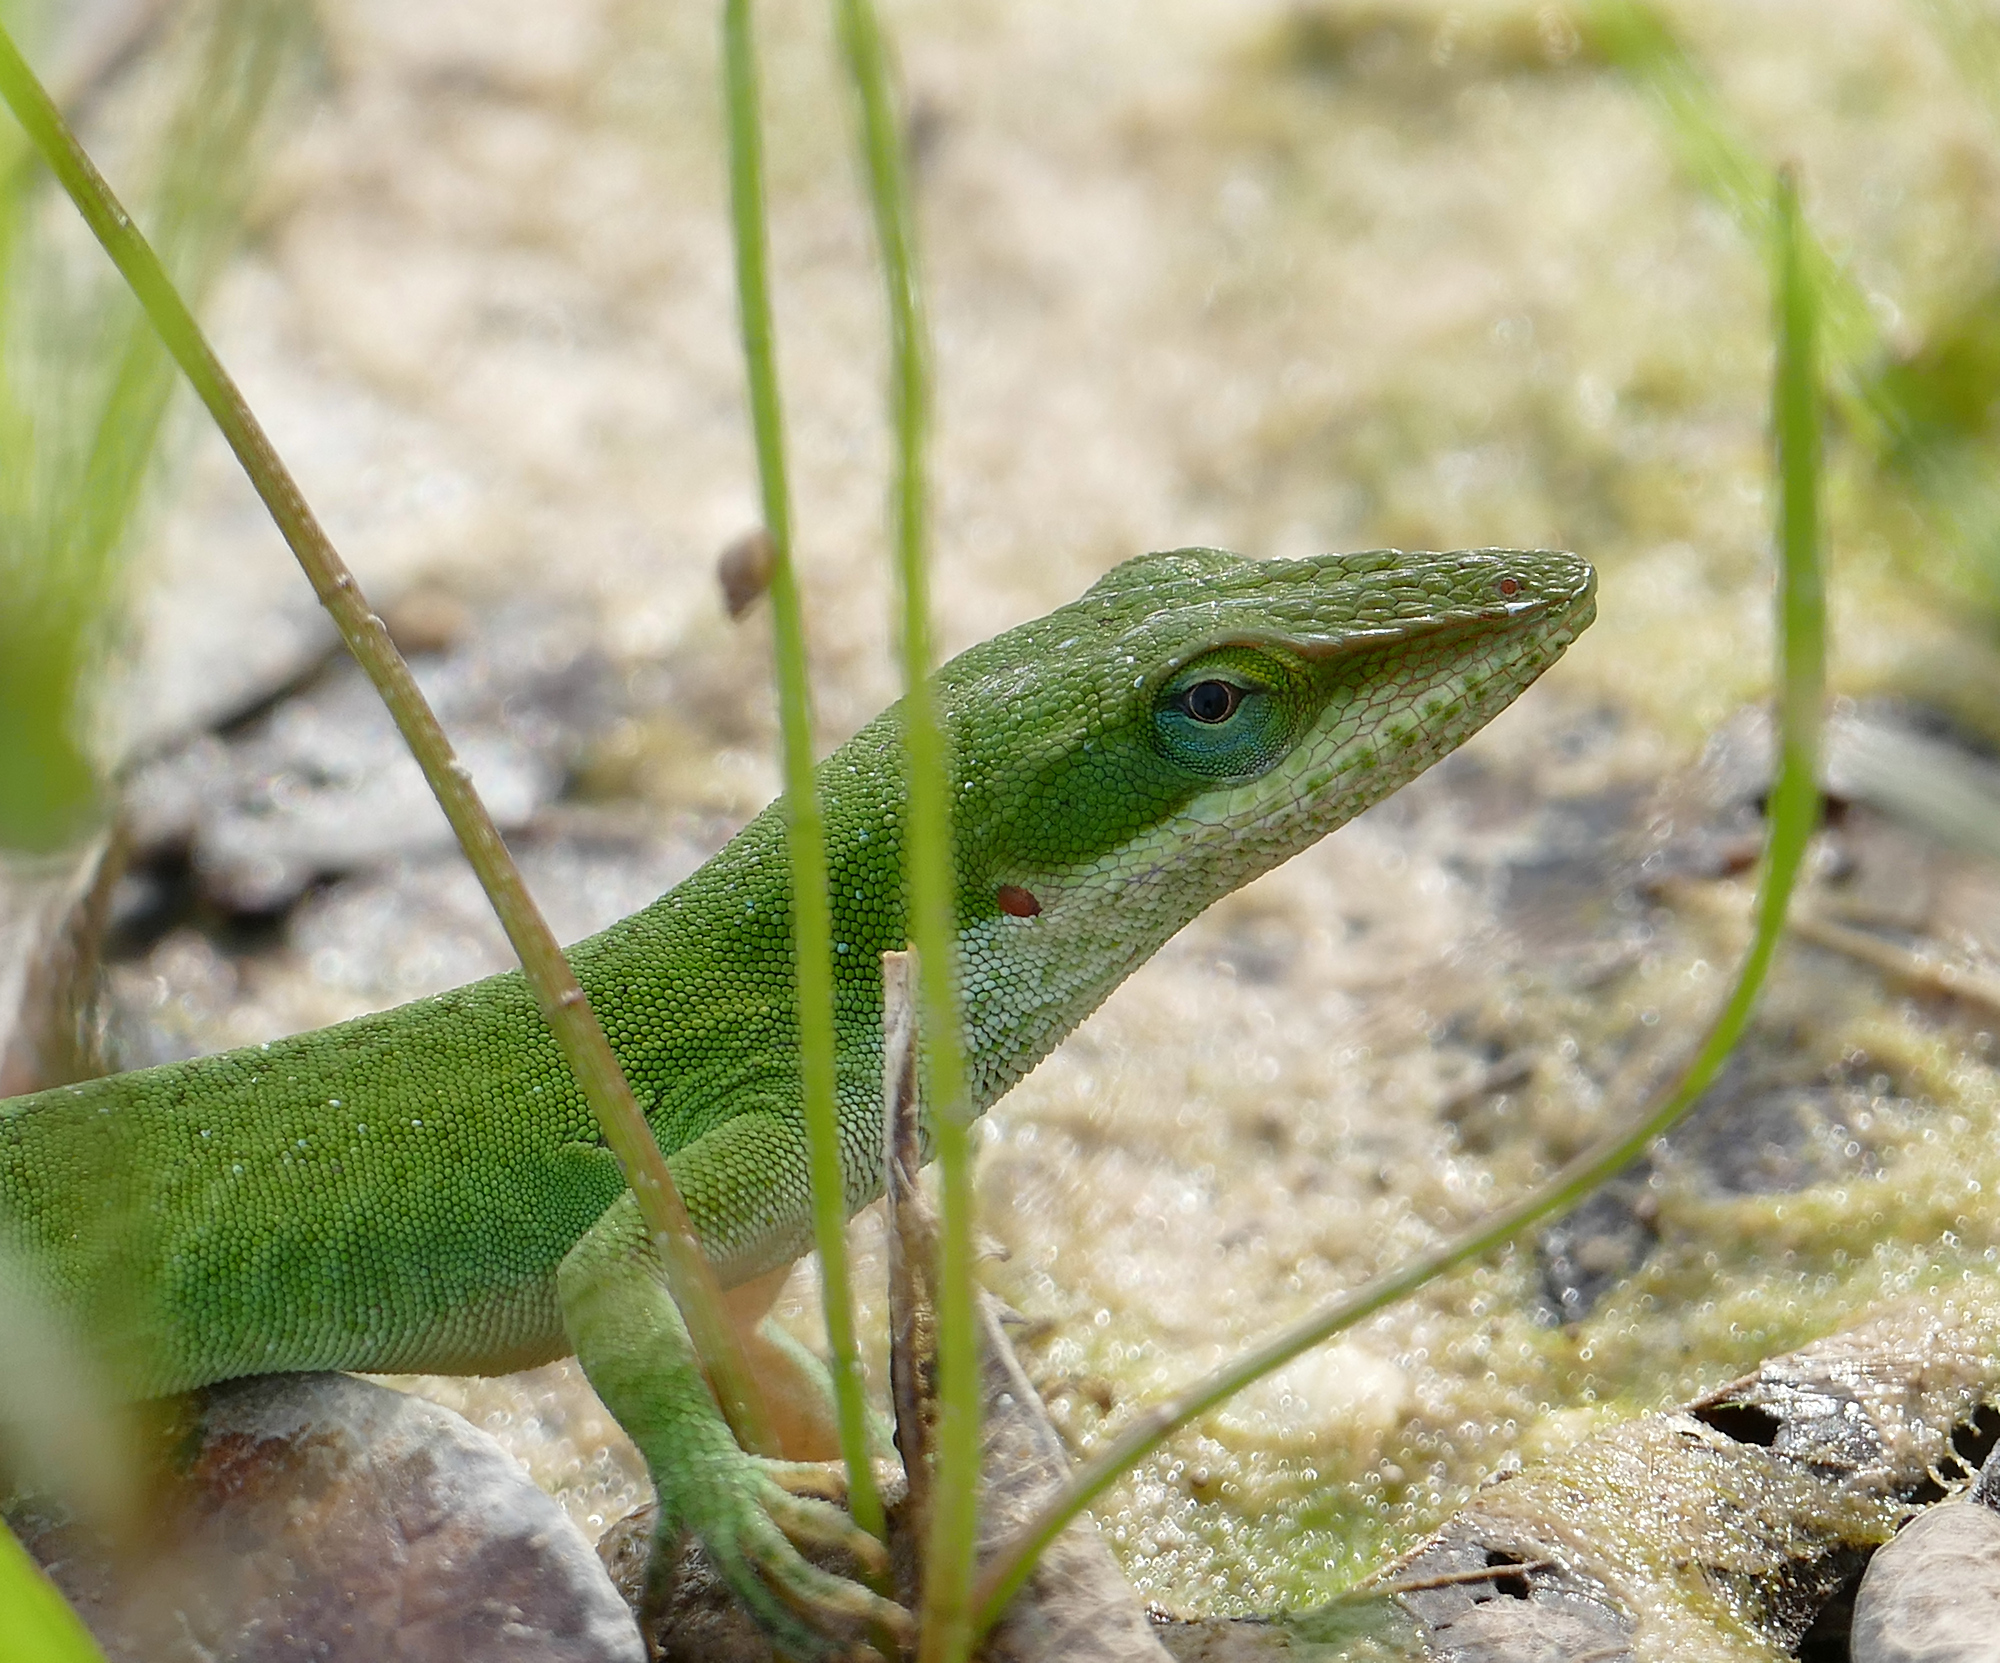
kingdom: Animalia
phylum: Chordata
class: Squamata
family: Dactyloidae
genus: Anolis
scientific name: Anolis carolinensis
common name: Green anole
